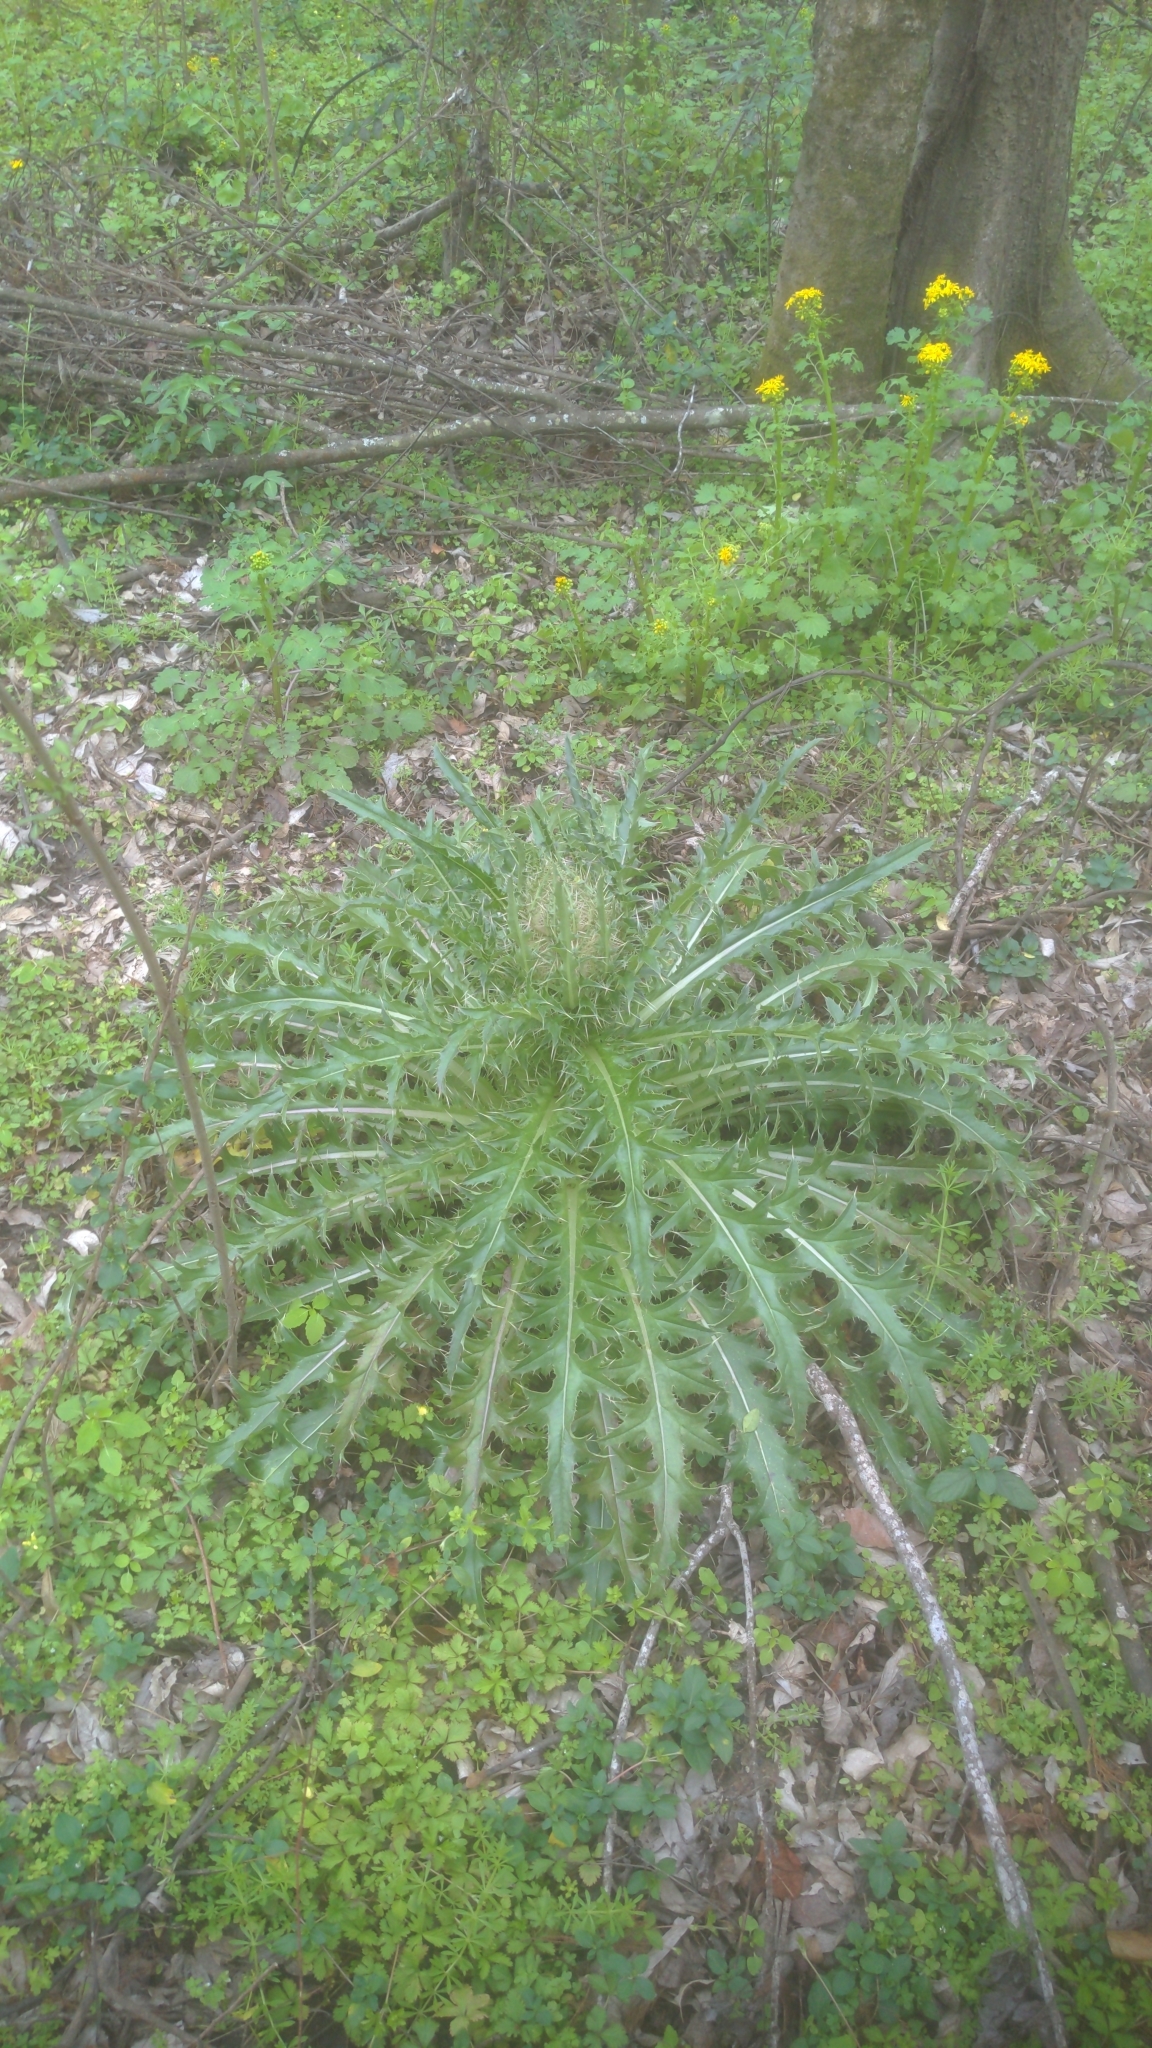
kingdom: Plantae
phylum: Tracheophyta
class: Magnoliopsida
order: Asterales
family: Asteraceae
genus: Cirsium
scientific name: Cirsium horridulum
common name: Bristly thistle
